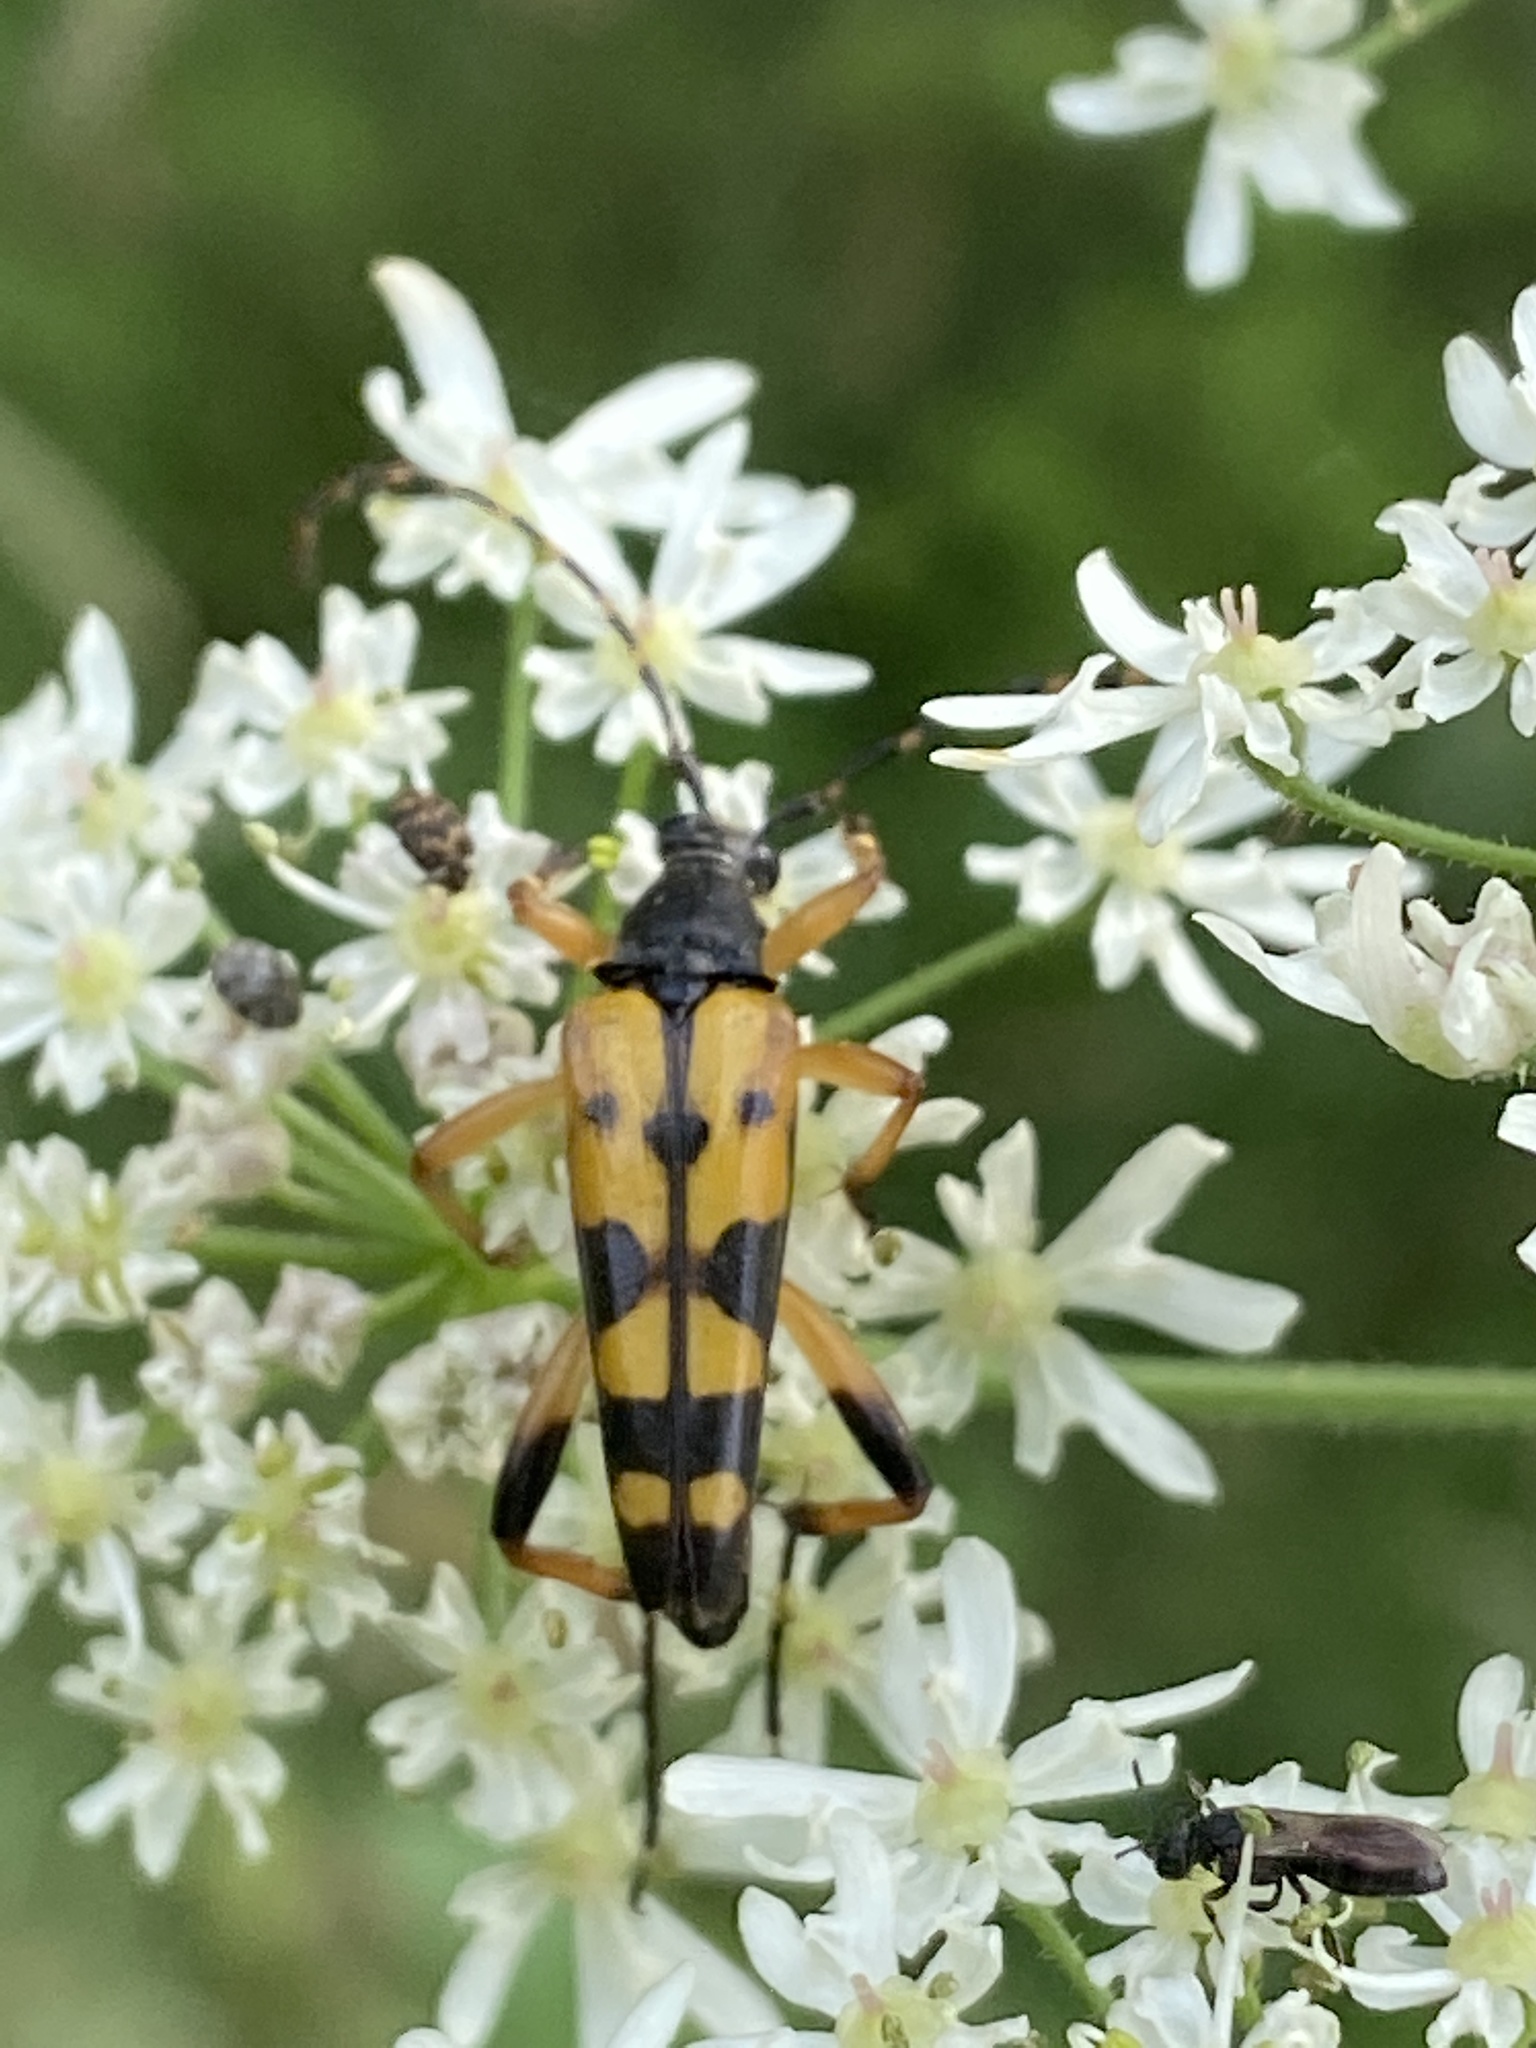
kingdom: Animalia
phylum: Arthropoda
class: Insecta
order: Coleoptera
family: Cerambycidae
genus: Rutpela
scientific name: Rutpela maculata
